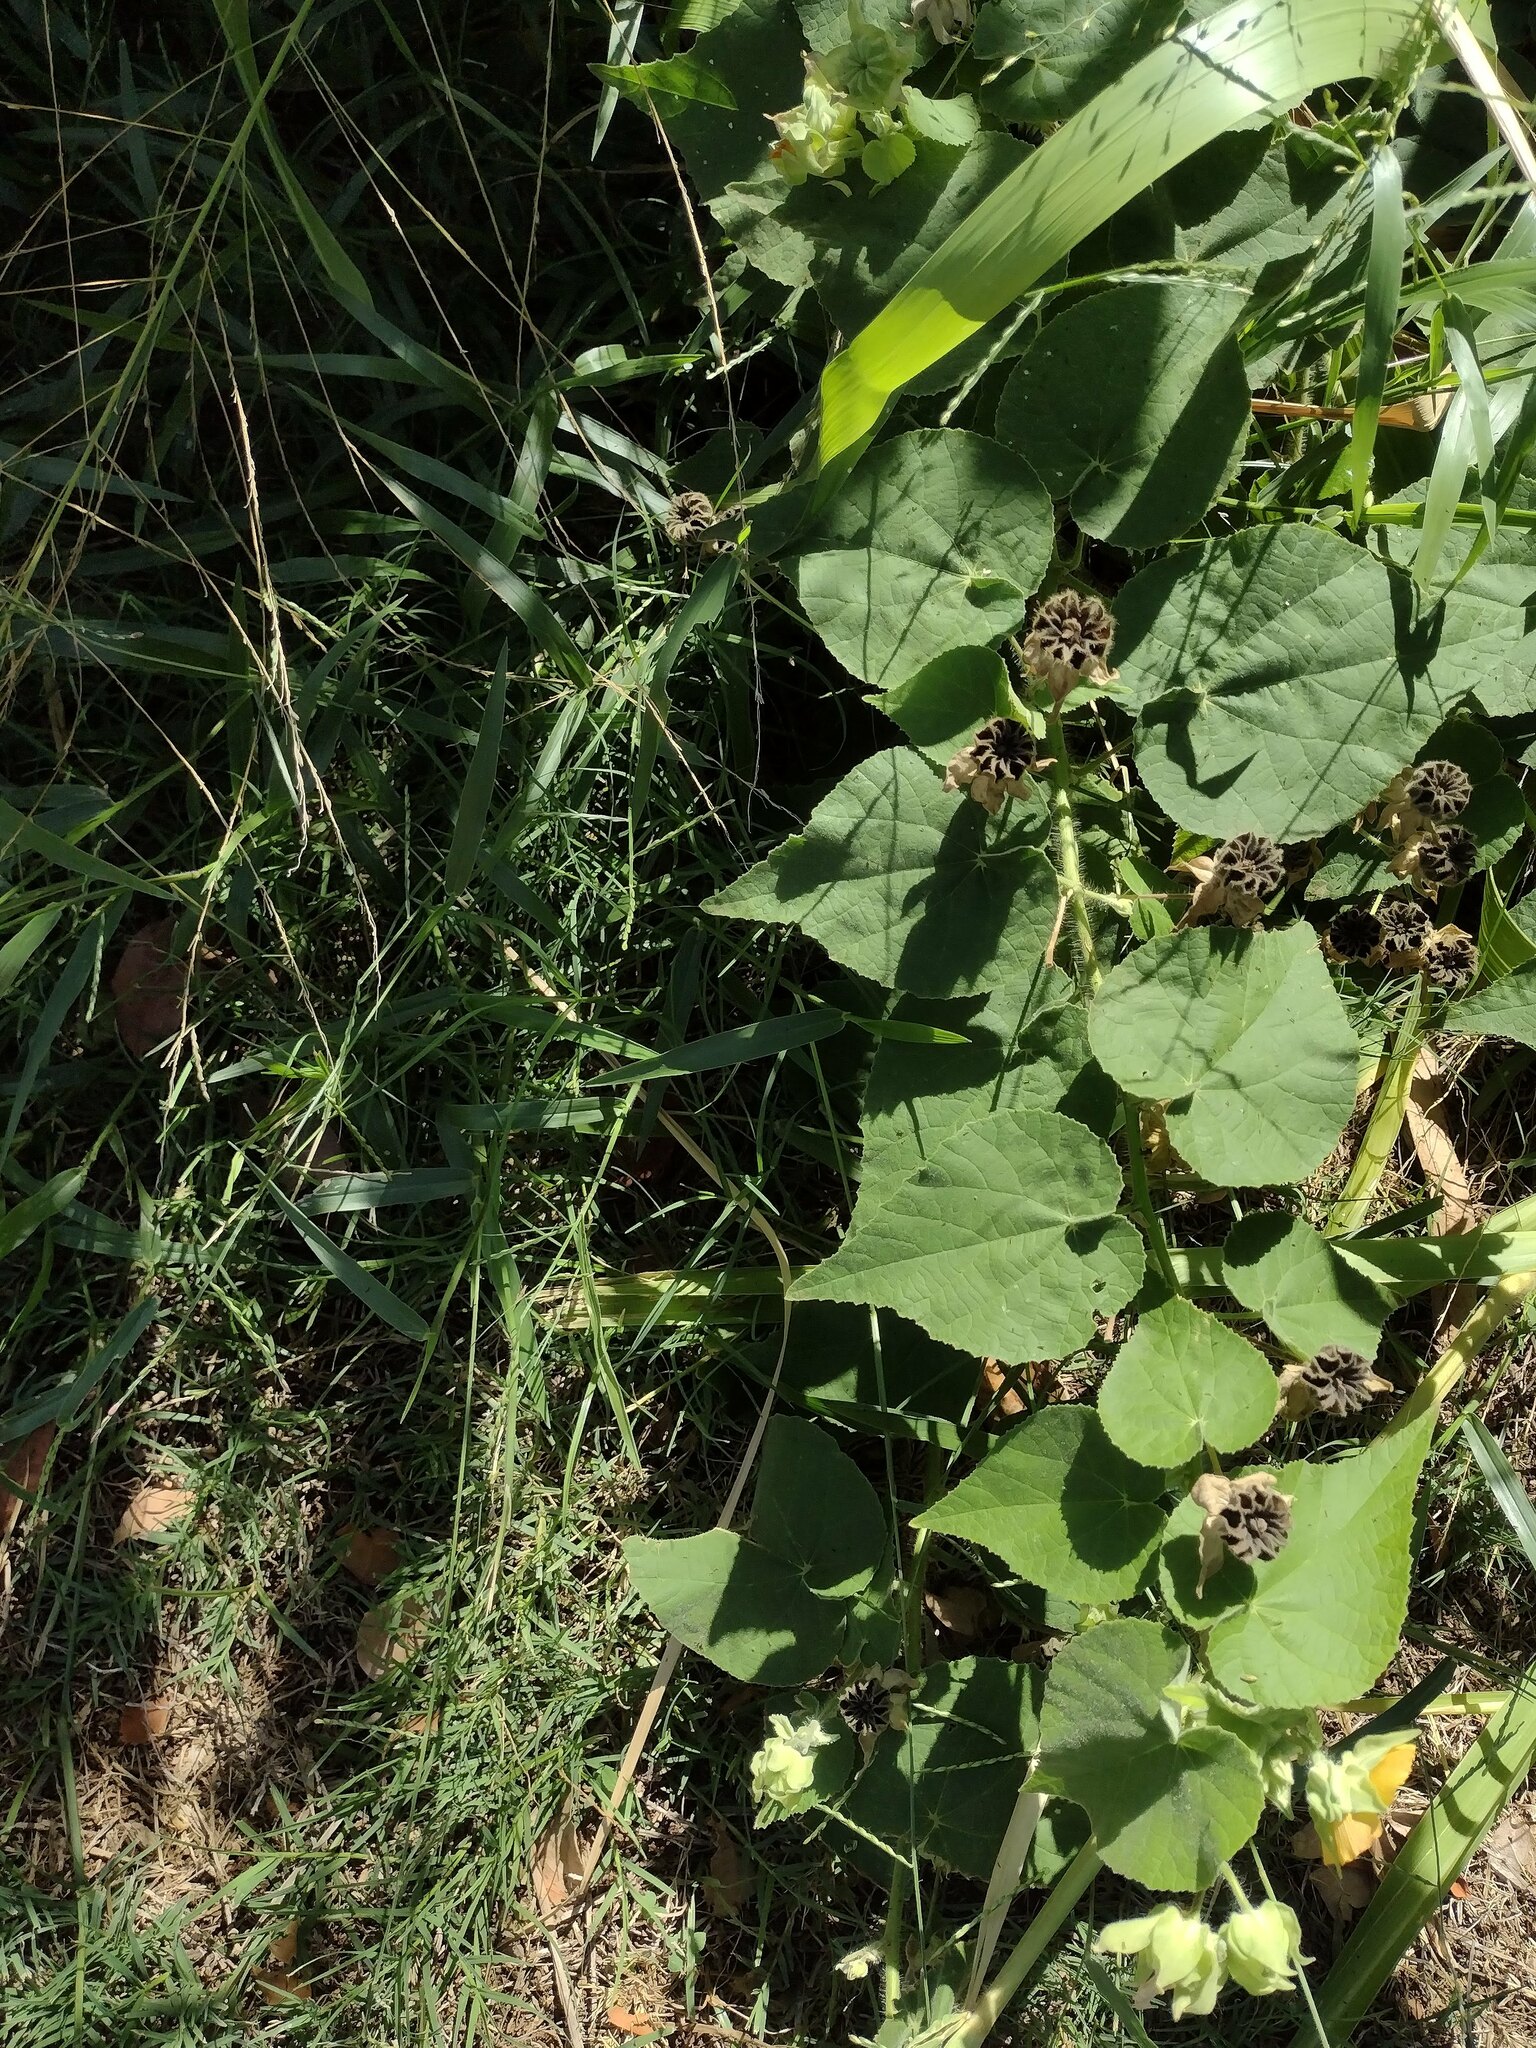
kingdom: Plantae
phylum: Tracheophyta
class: Magnoliopsida
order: Malvales
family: Malvaceae
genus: Abutilon
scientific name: Abutilon grandifolium
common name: Hairy abutilon
